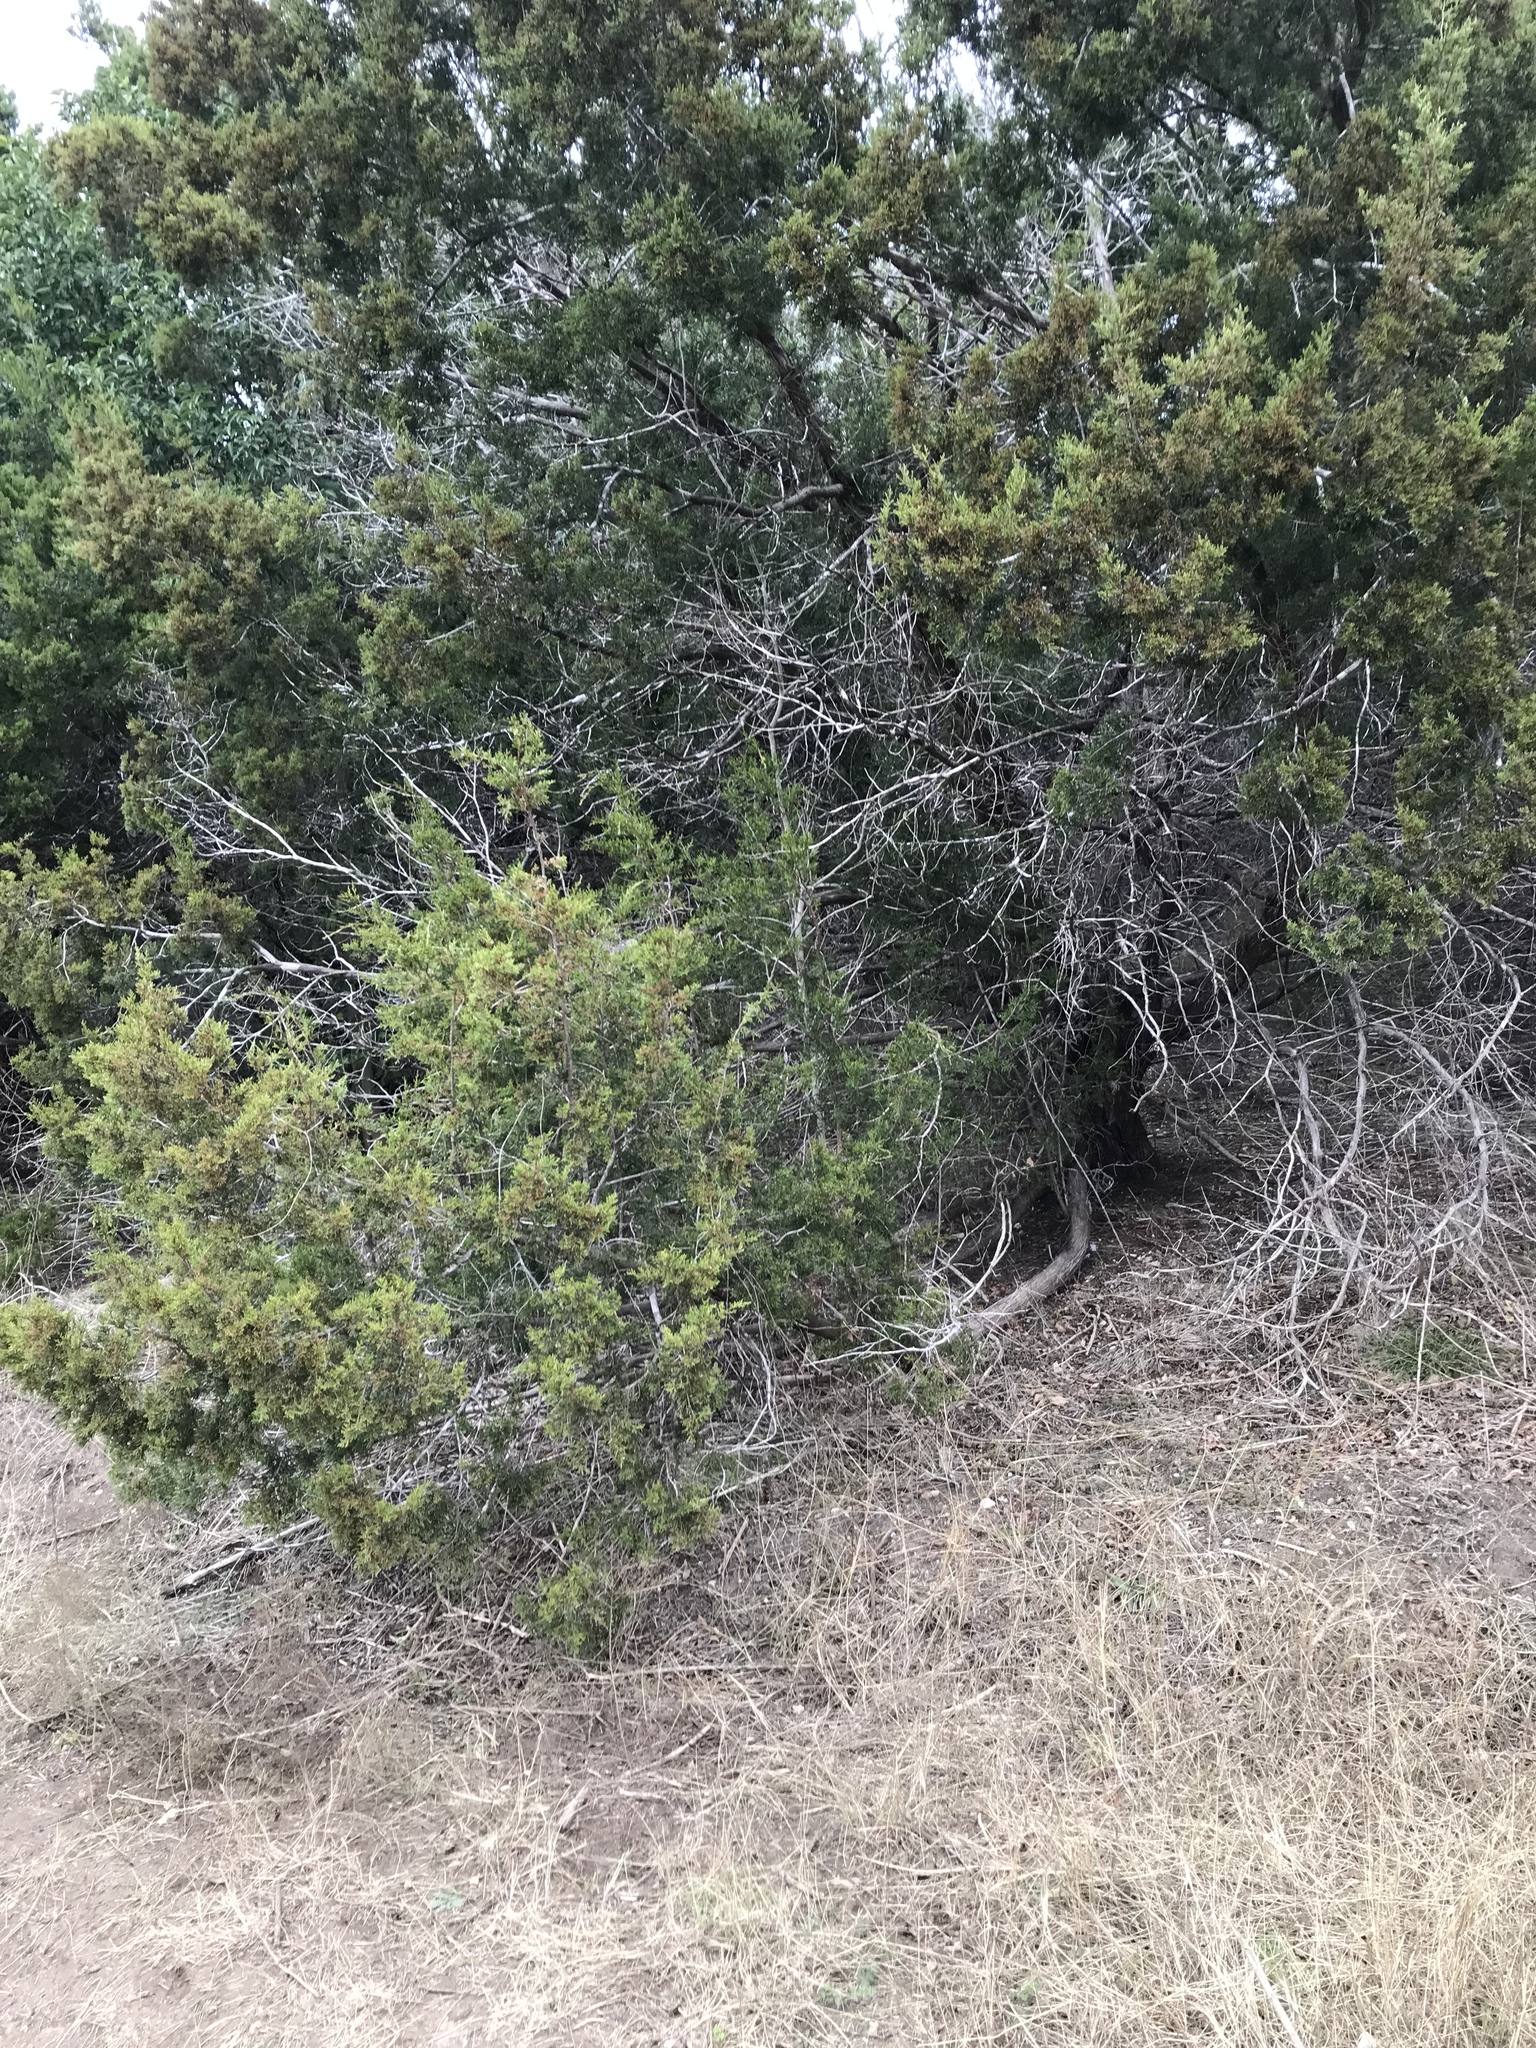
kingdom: Plantae
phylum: Tracheophyta
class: Pinopsida
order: Pinales
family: Cupressaceae
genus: Juniperus
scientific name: Juniperus ashei
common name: Mexican juniper
